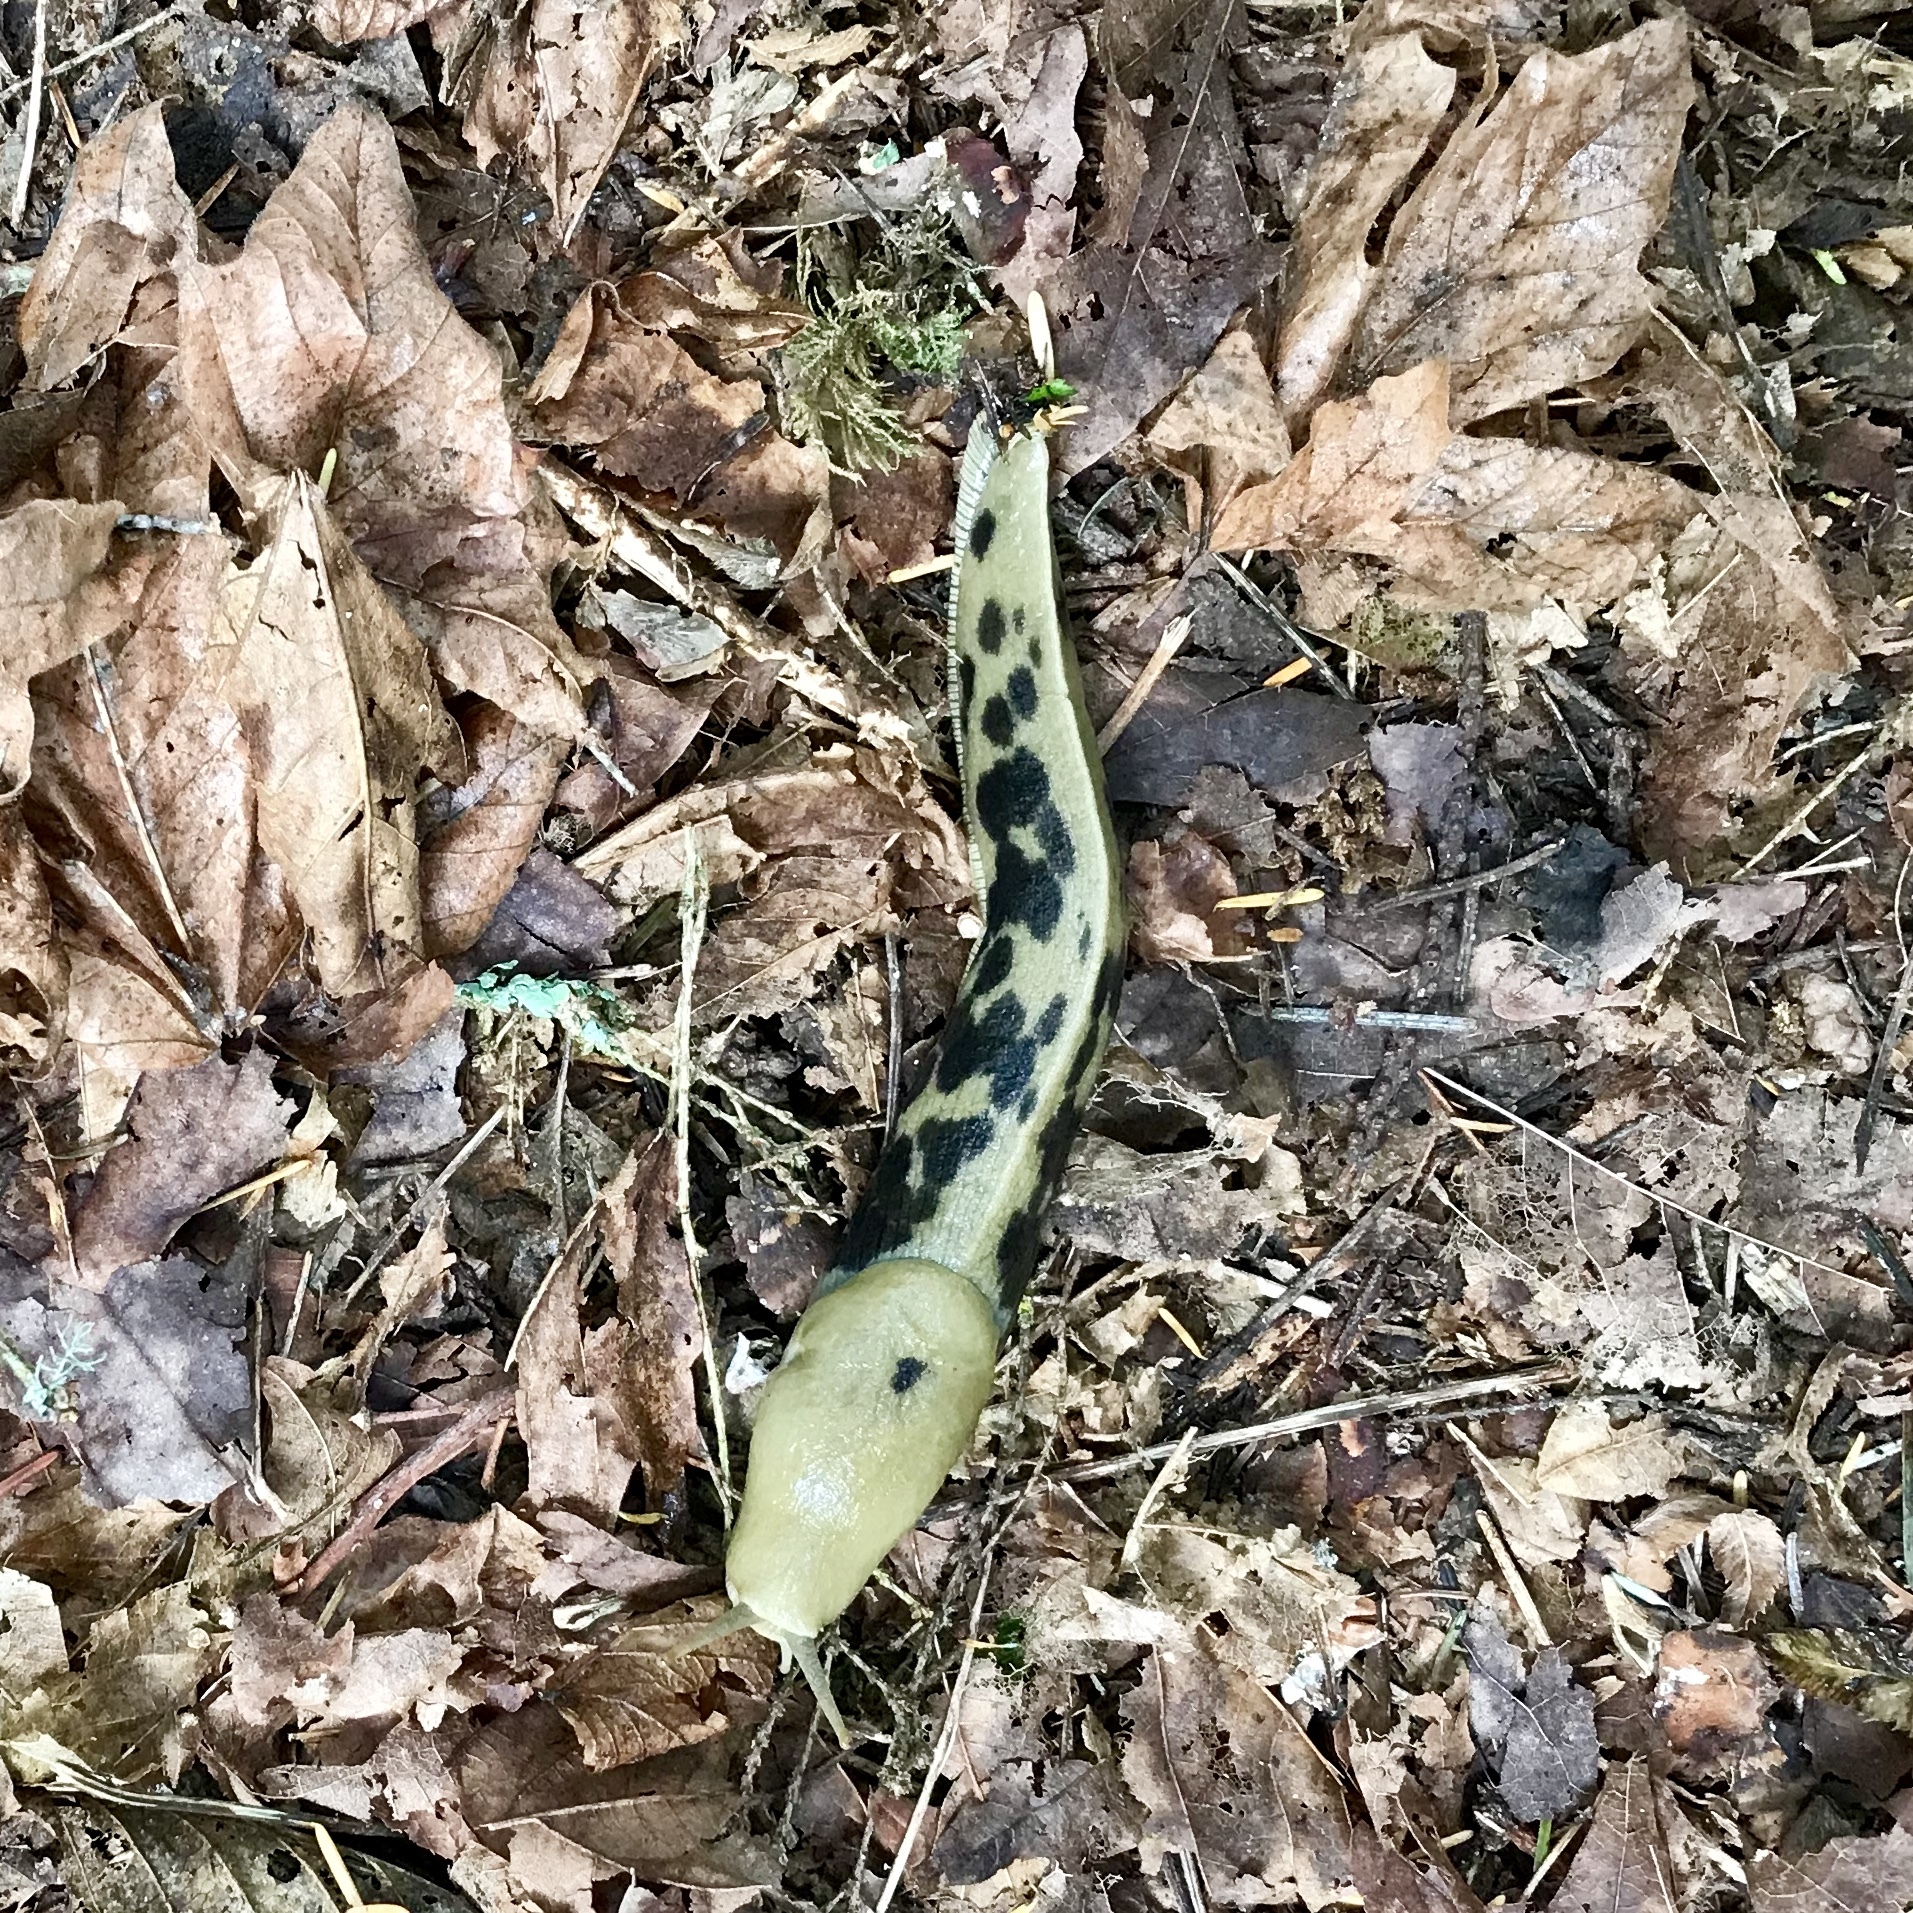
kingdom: Animalia
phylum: Mollusca
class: Gastropoda
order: Stylommatophora
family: Ariolimacidae
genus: Ariolimax
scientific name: Ariolimax columbianus
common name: Pacific banana slug
